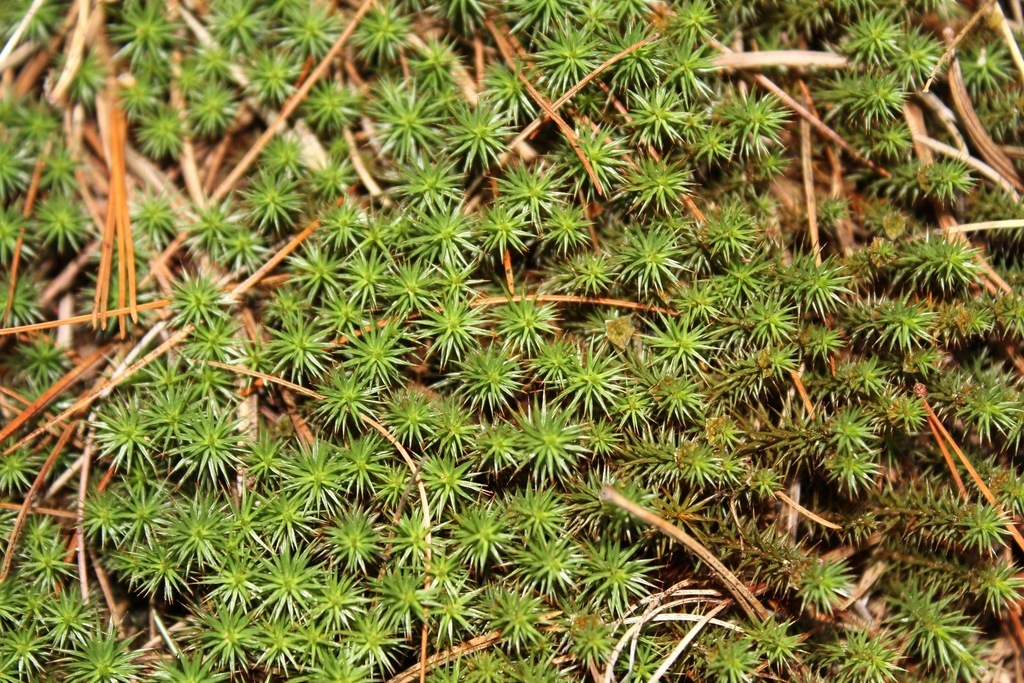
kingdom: Plantae
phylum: Bryophyta
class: Polytrichopsida
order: Polytrichales
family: Polytrichaceae
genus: Polytrichum
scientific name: Polytrichum juniperinum
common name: Juniper haircap moss
